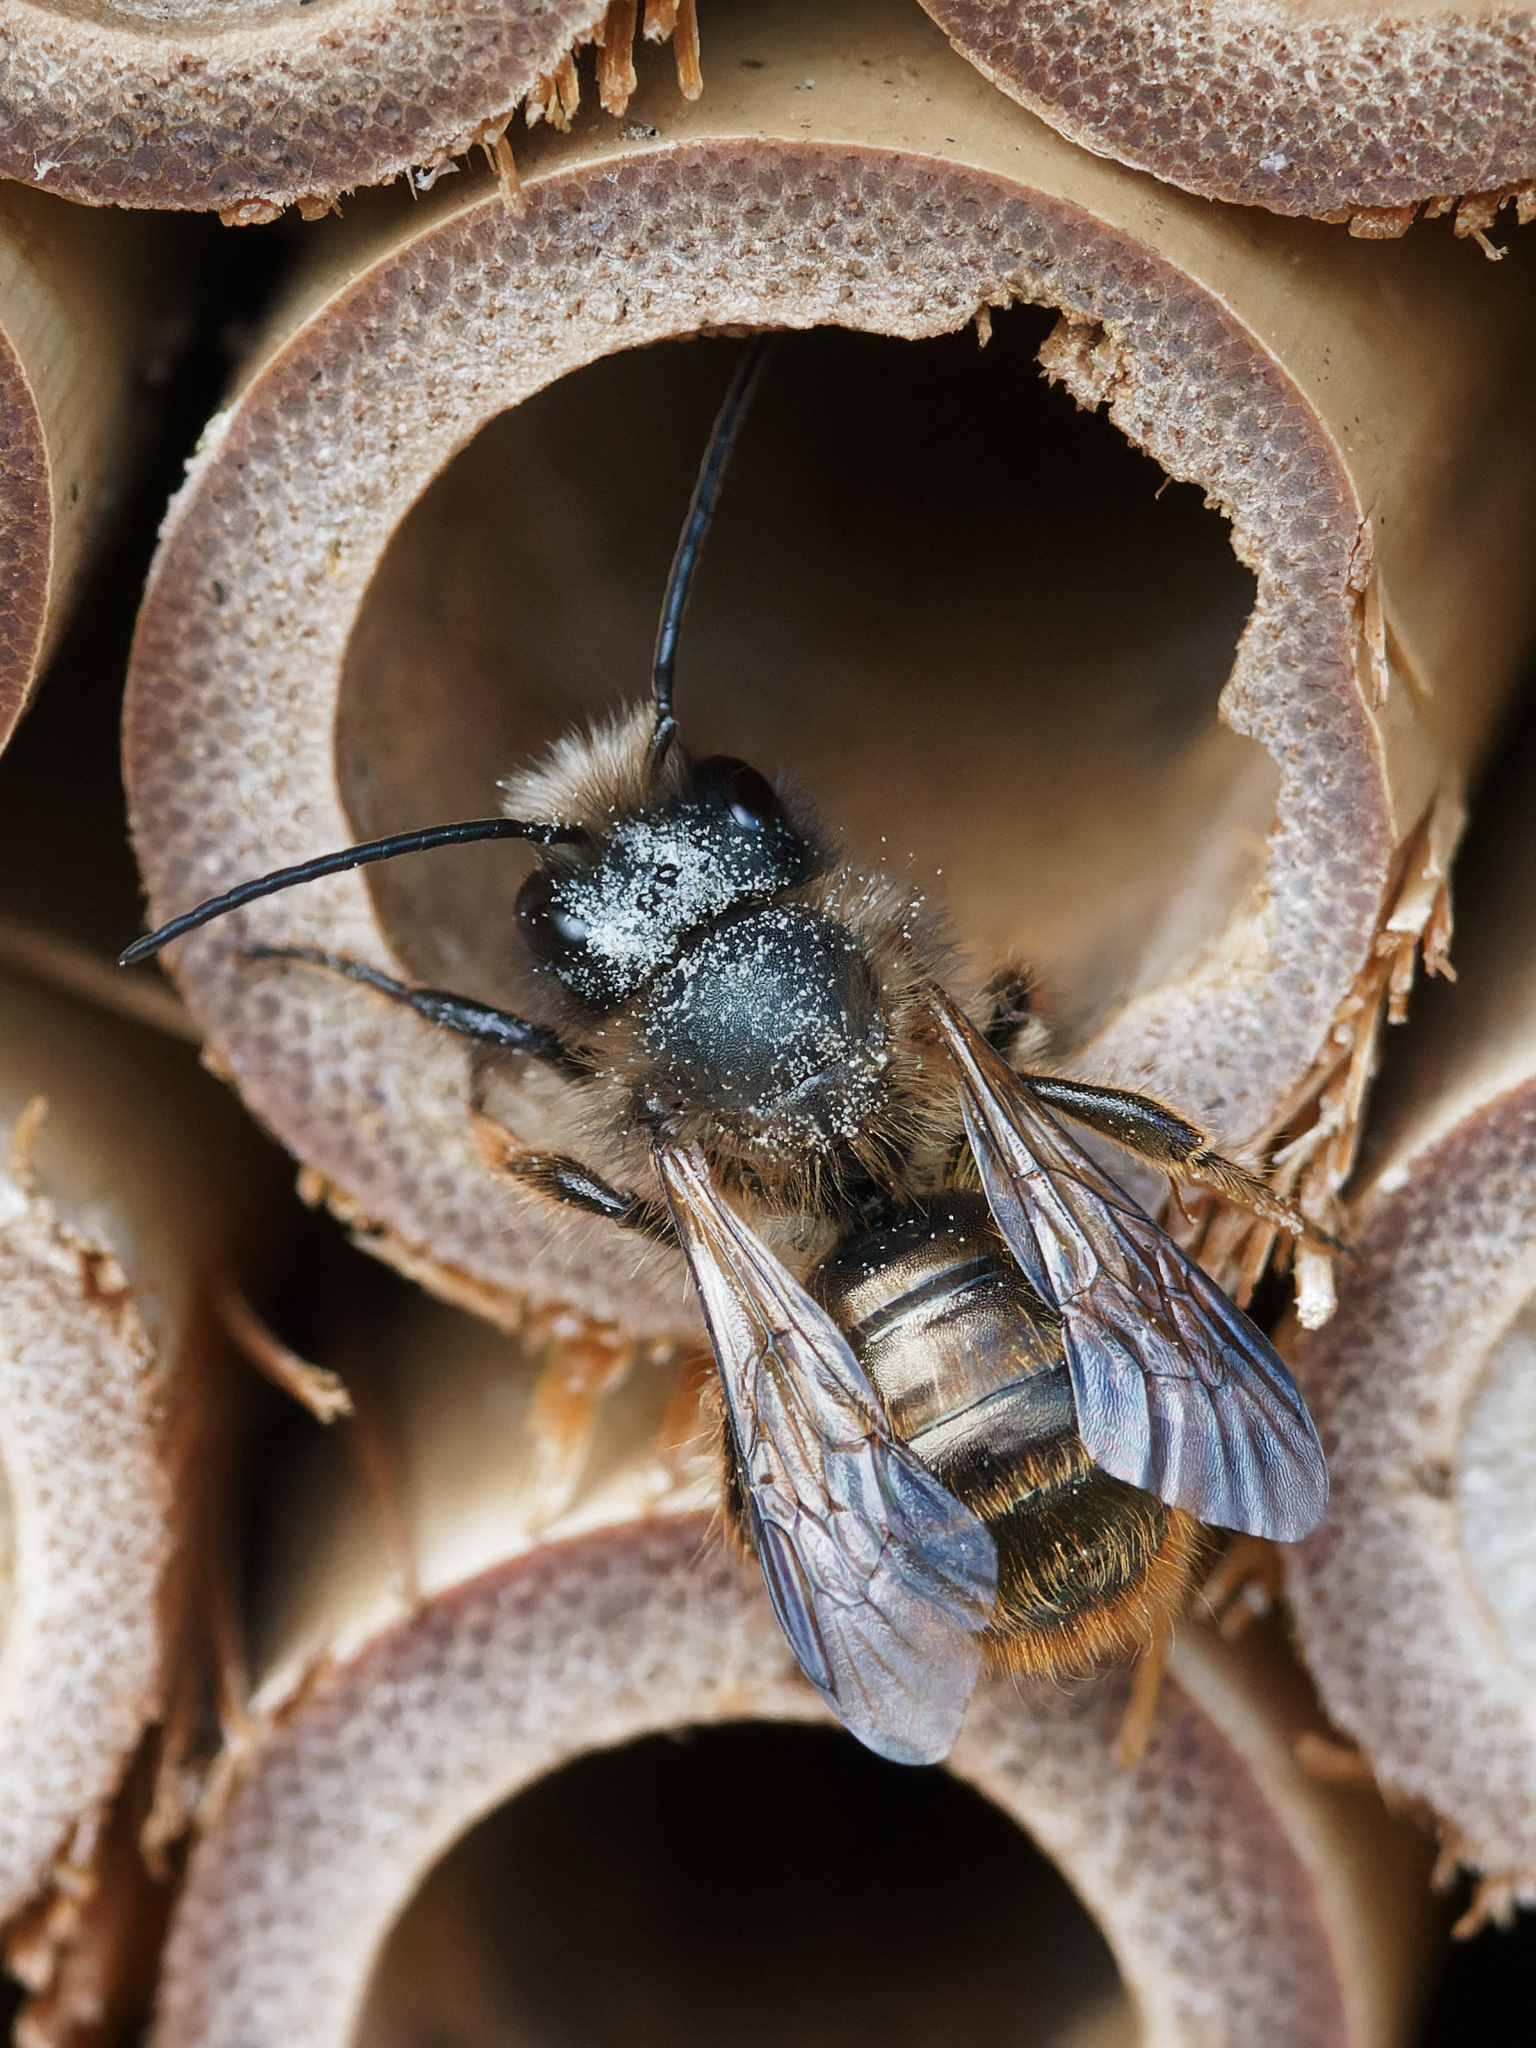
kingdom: Animalia
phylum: Arthropoda
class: Insecta
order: Hymenoptera
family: Megachilidae
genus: Osmia
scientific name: Osmia bicornis
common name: Red mason bee
